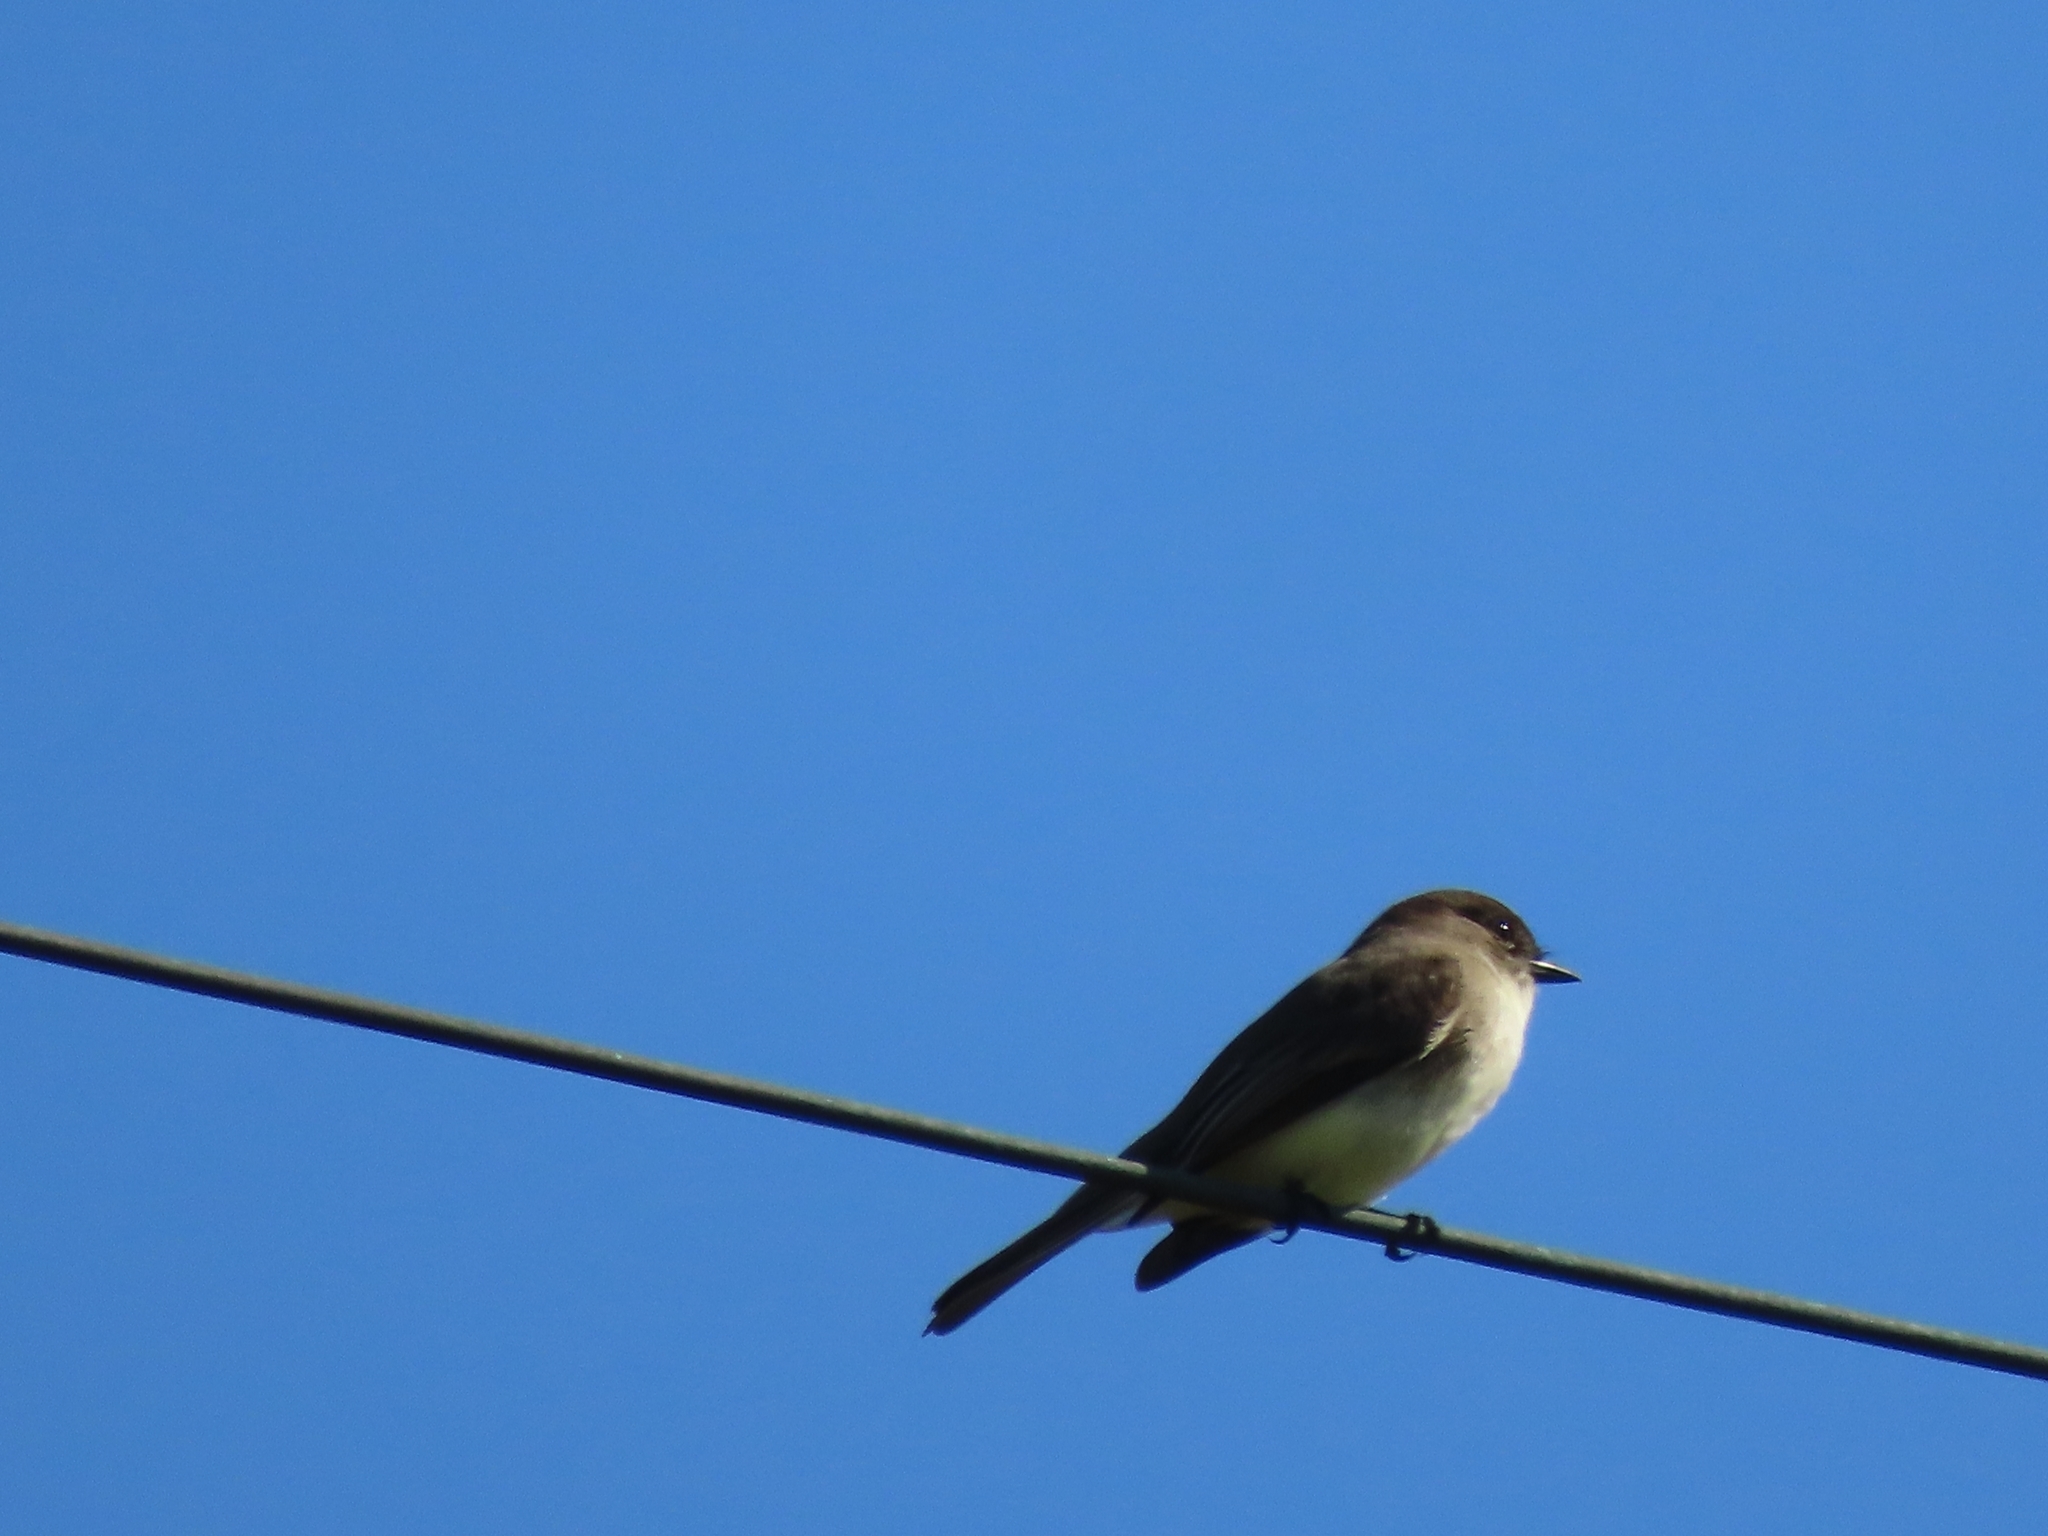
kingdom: Animalia
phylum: Chordata
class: Aves
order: Passeriformes
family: Tyrannidae
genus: Sayornis
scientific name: Sayornis phoebe
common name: Eastern phoebe
